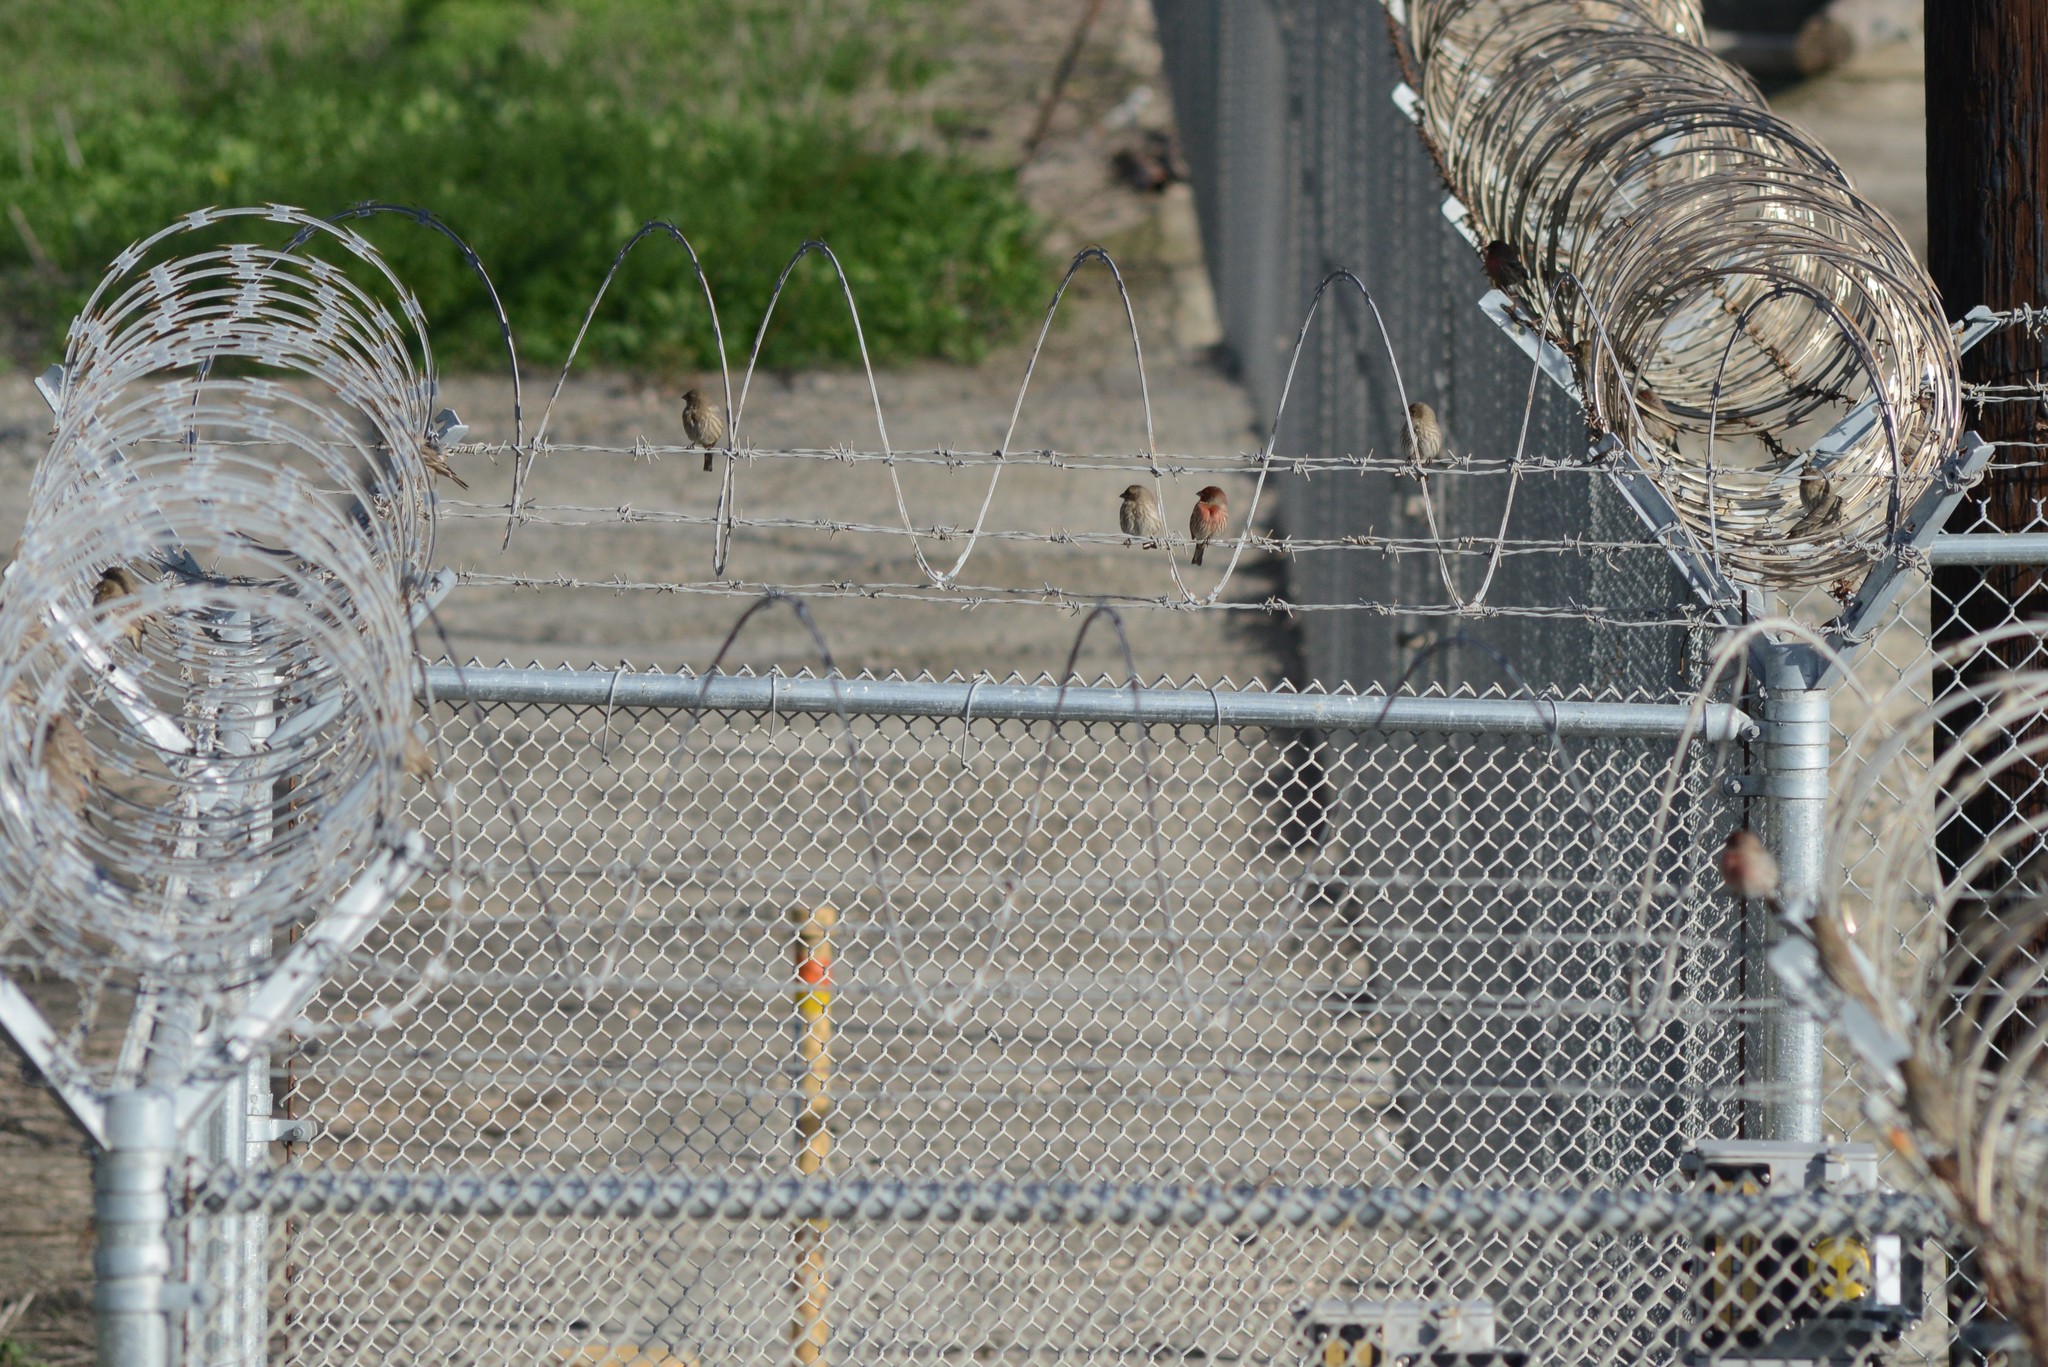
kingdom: Animalia
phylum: Chordata
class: Aves
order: Passeriformes
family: Fringillidae
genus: Haemorhous
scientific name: Haemorhous mexicanus
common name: House finch
